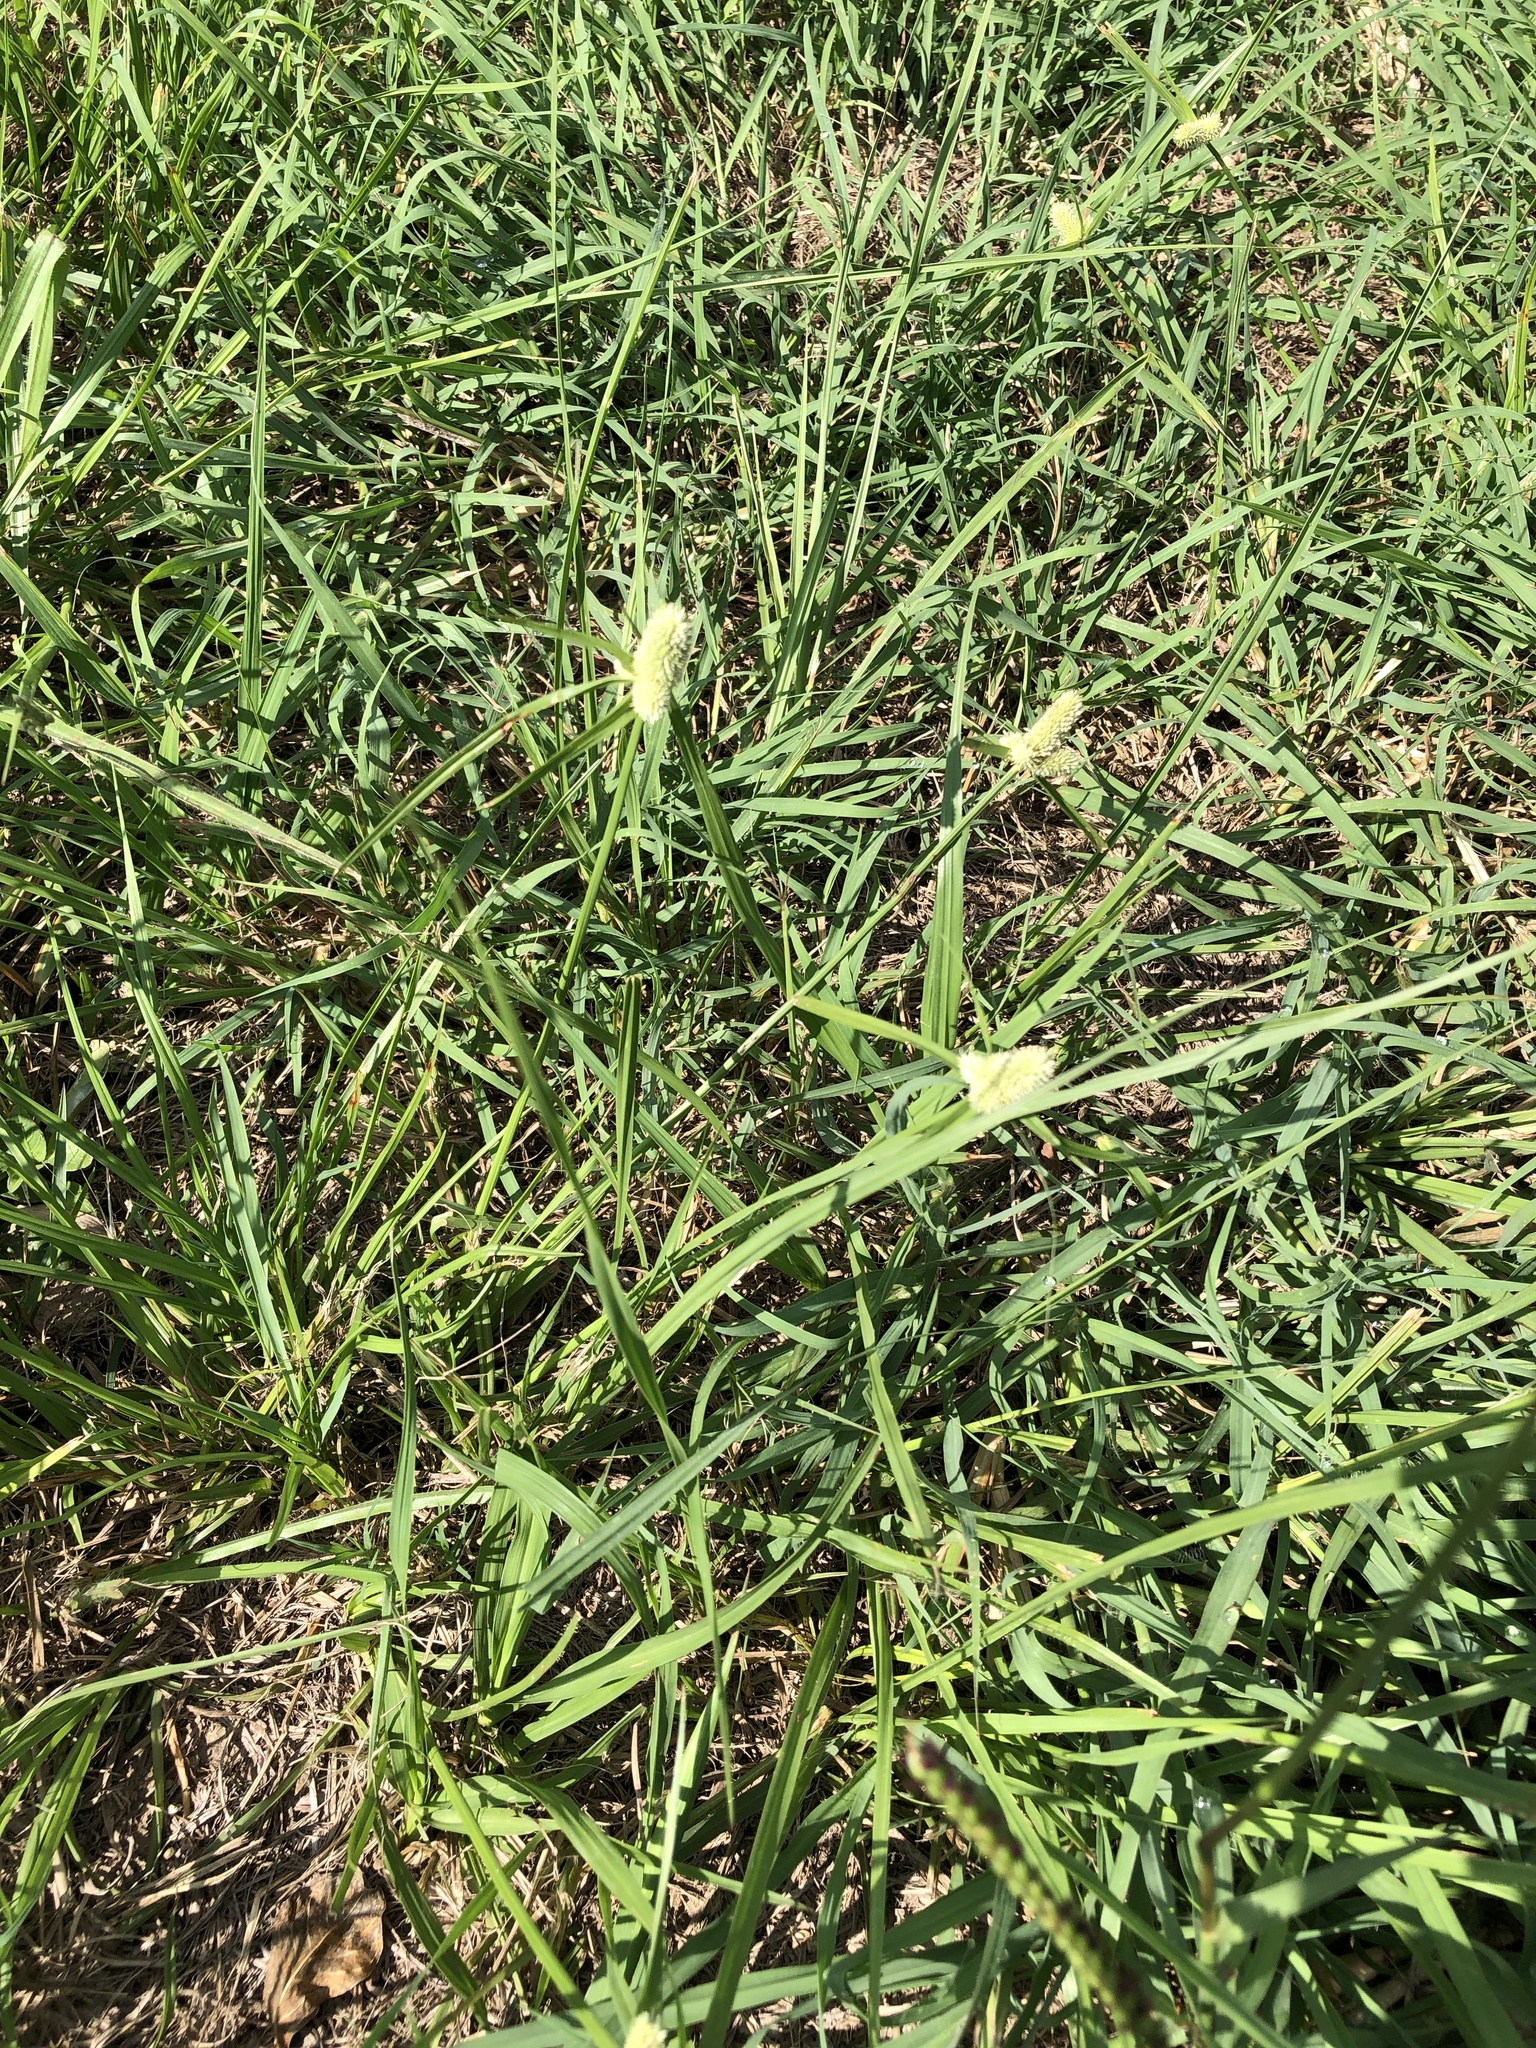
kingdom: Plantae
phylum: Tracheophyta
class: Liliopsida
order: Poales
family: Cyperaceae
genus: Cyperus
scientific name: Cyperus sesquiflorus
